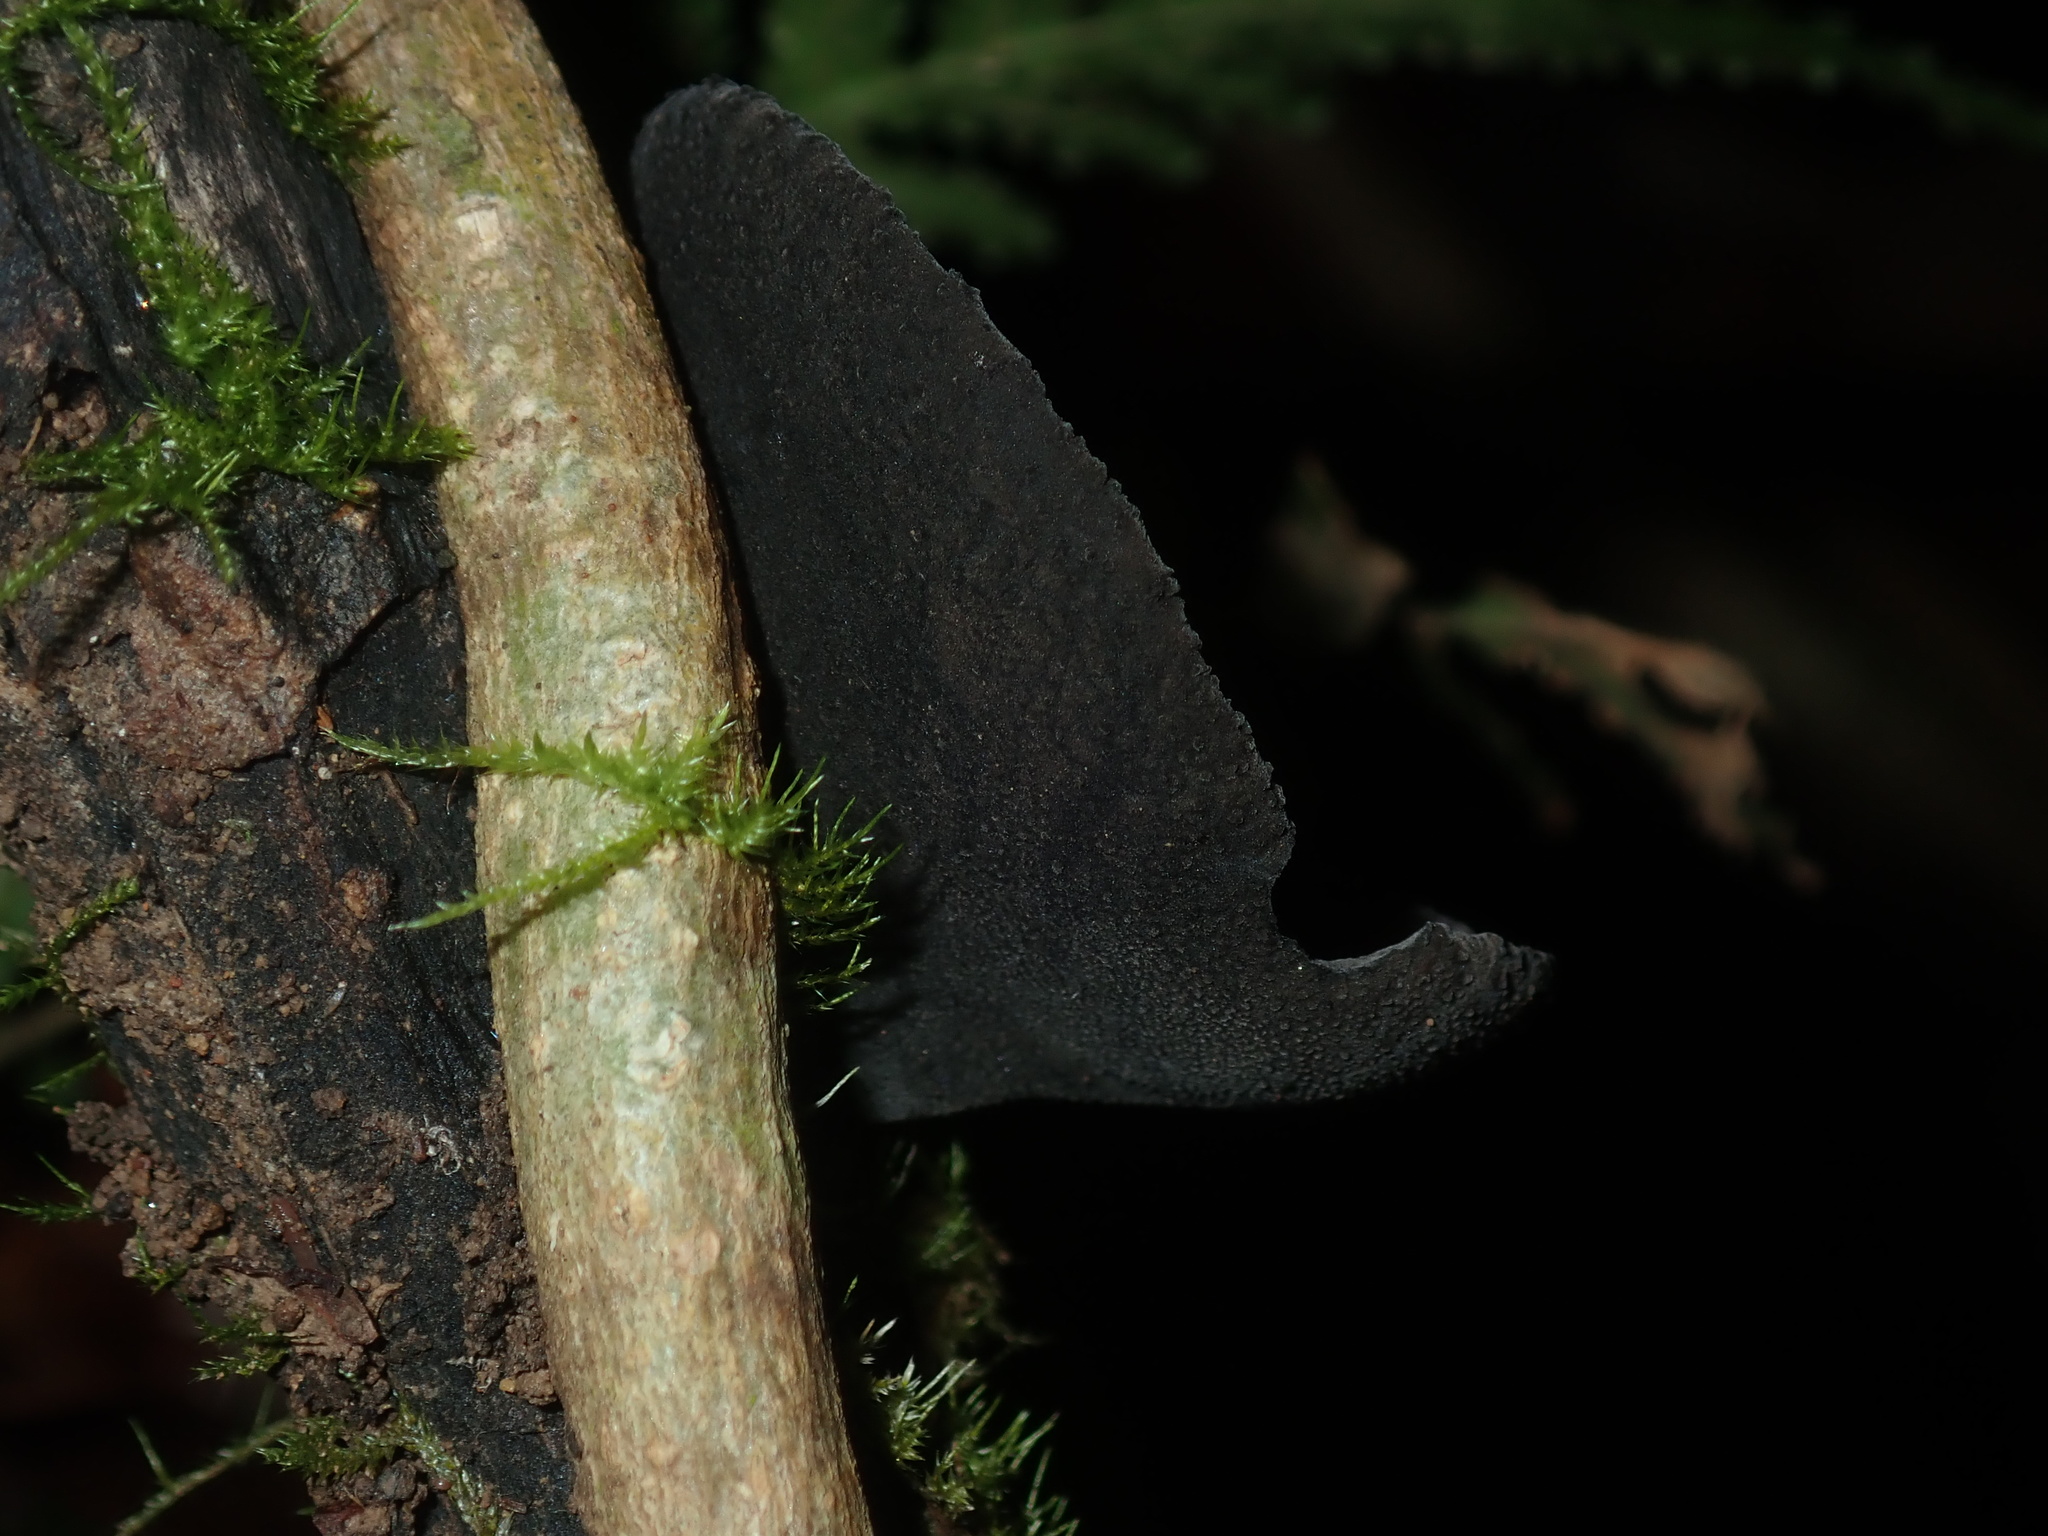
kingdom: Fungi
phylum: Ascomycota
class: Pezizomycetes
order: Pezizales
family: Sarcosomataceae
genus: Plectania
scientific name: Plectania campylospora
